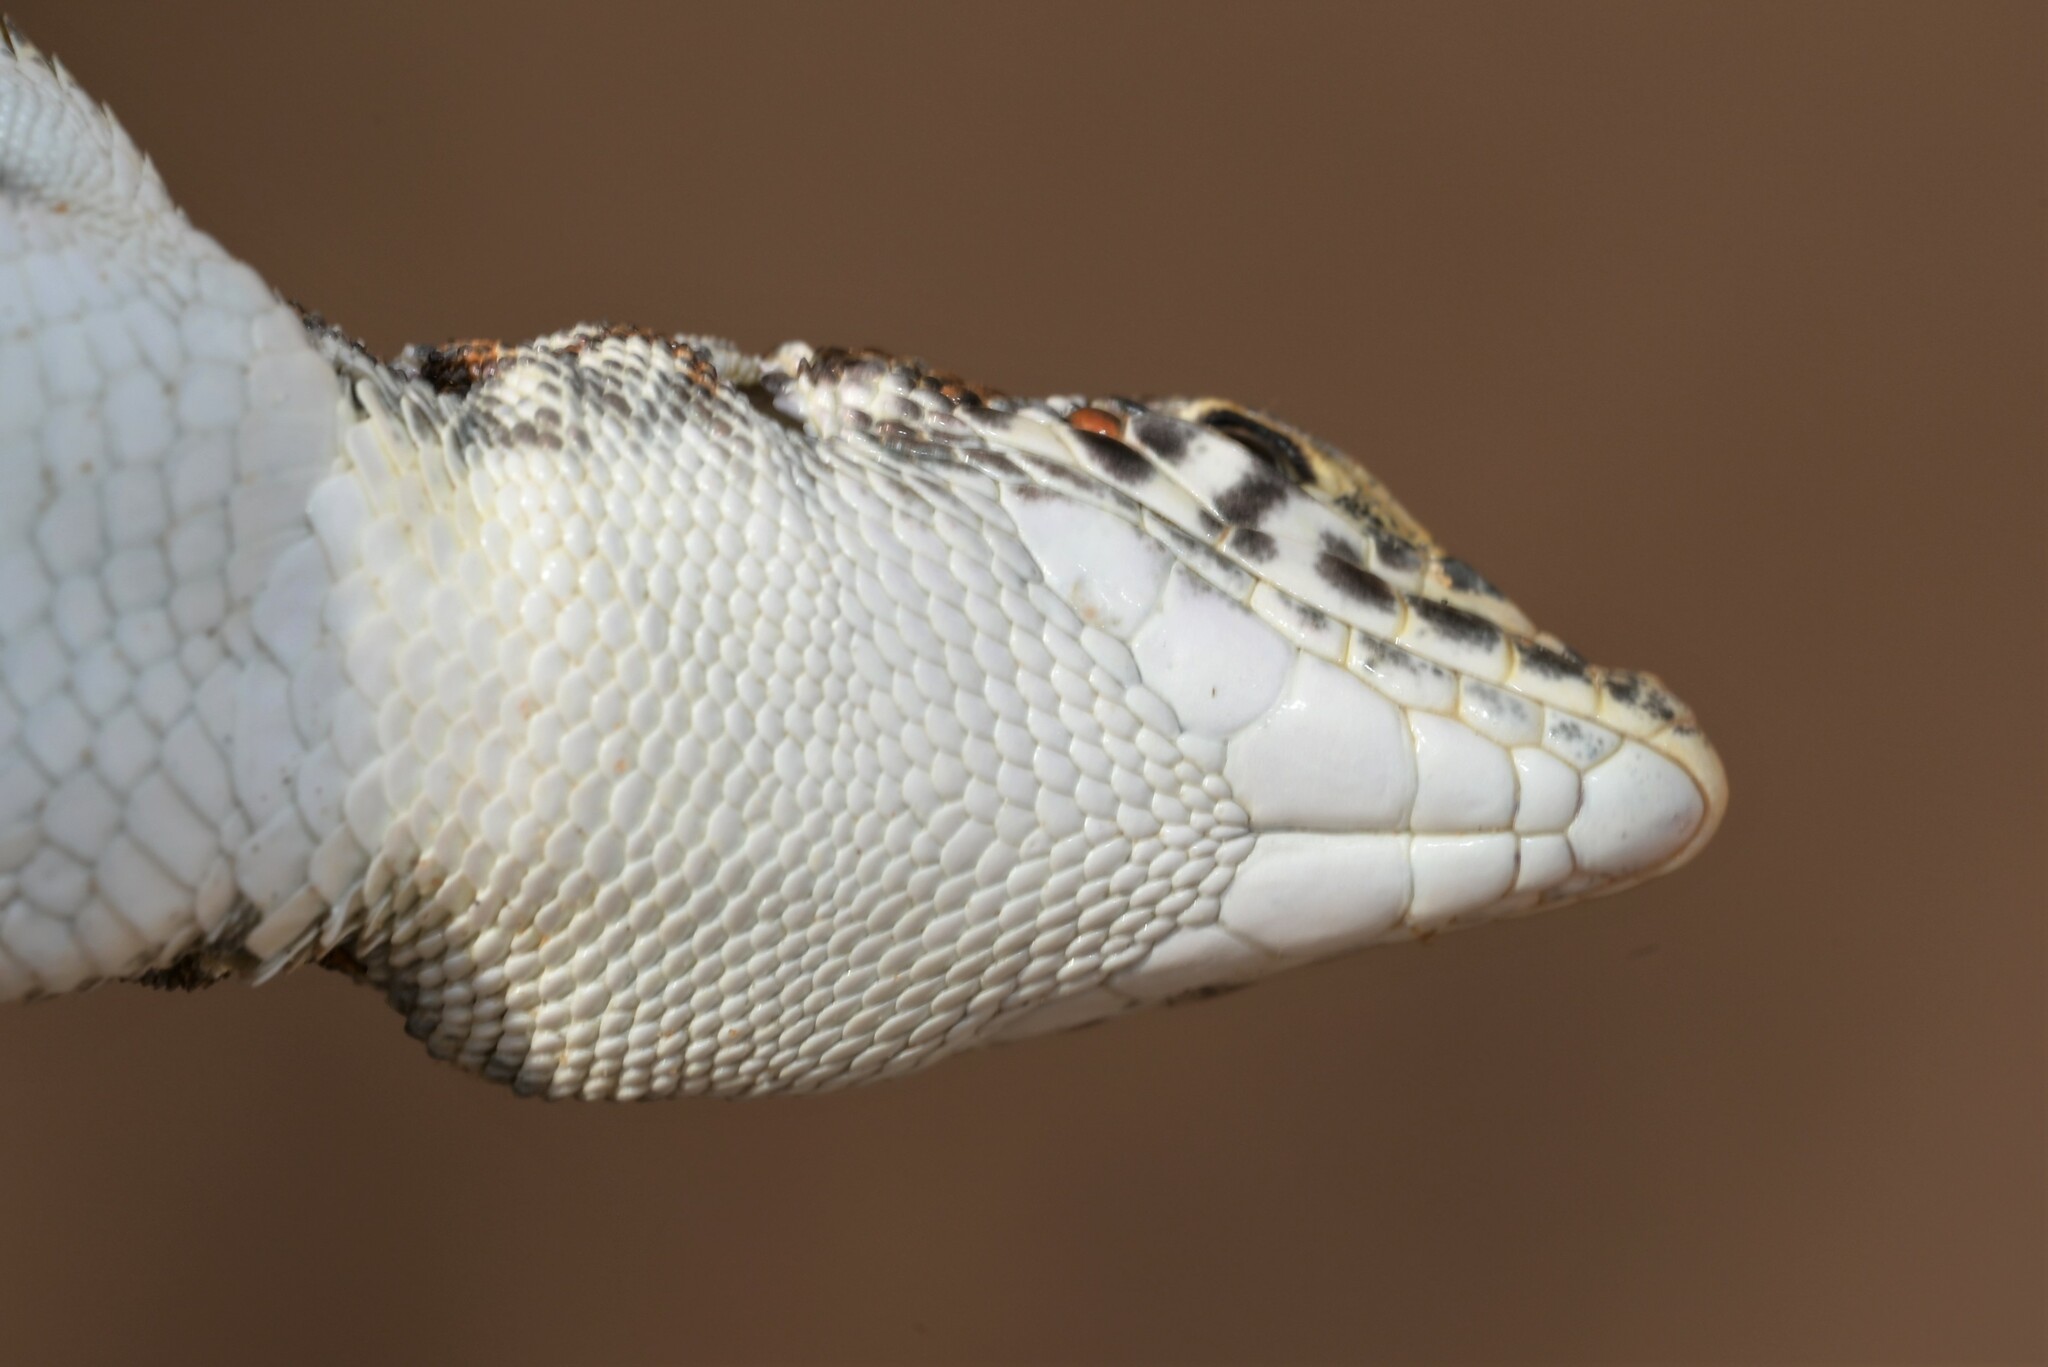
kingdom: Animalia
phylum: Chordata
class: Squamata
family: Lacertidae
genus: Acanthodactylus
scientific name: Acanthodactylus opheodurus
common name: Arnold's fringe-fingered lizard
